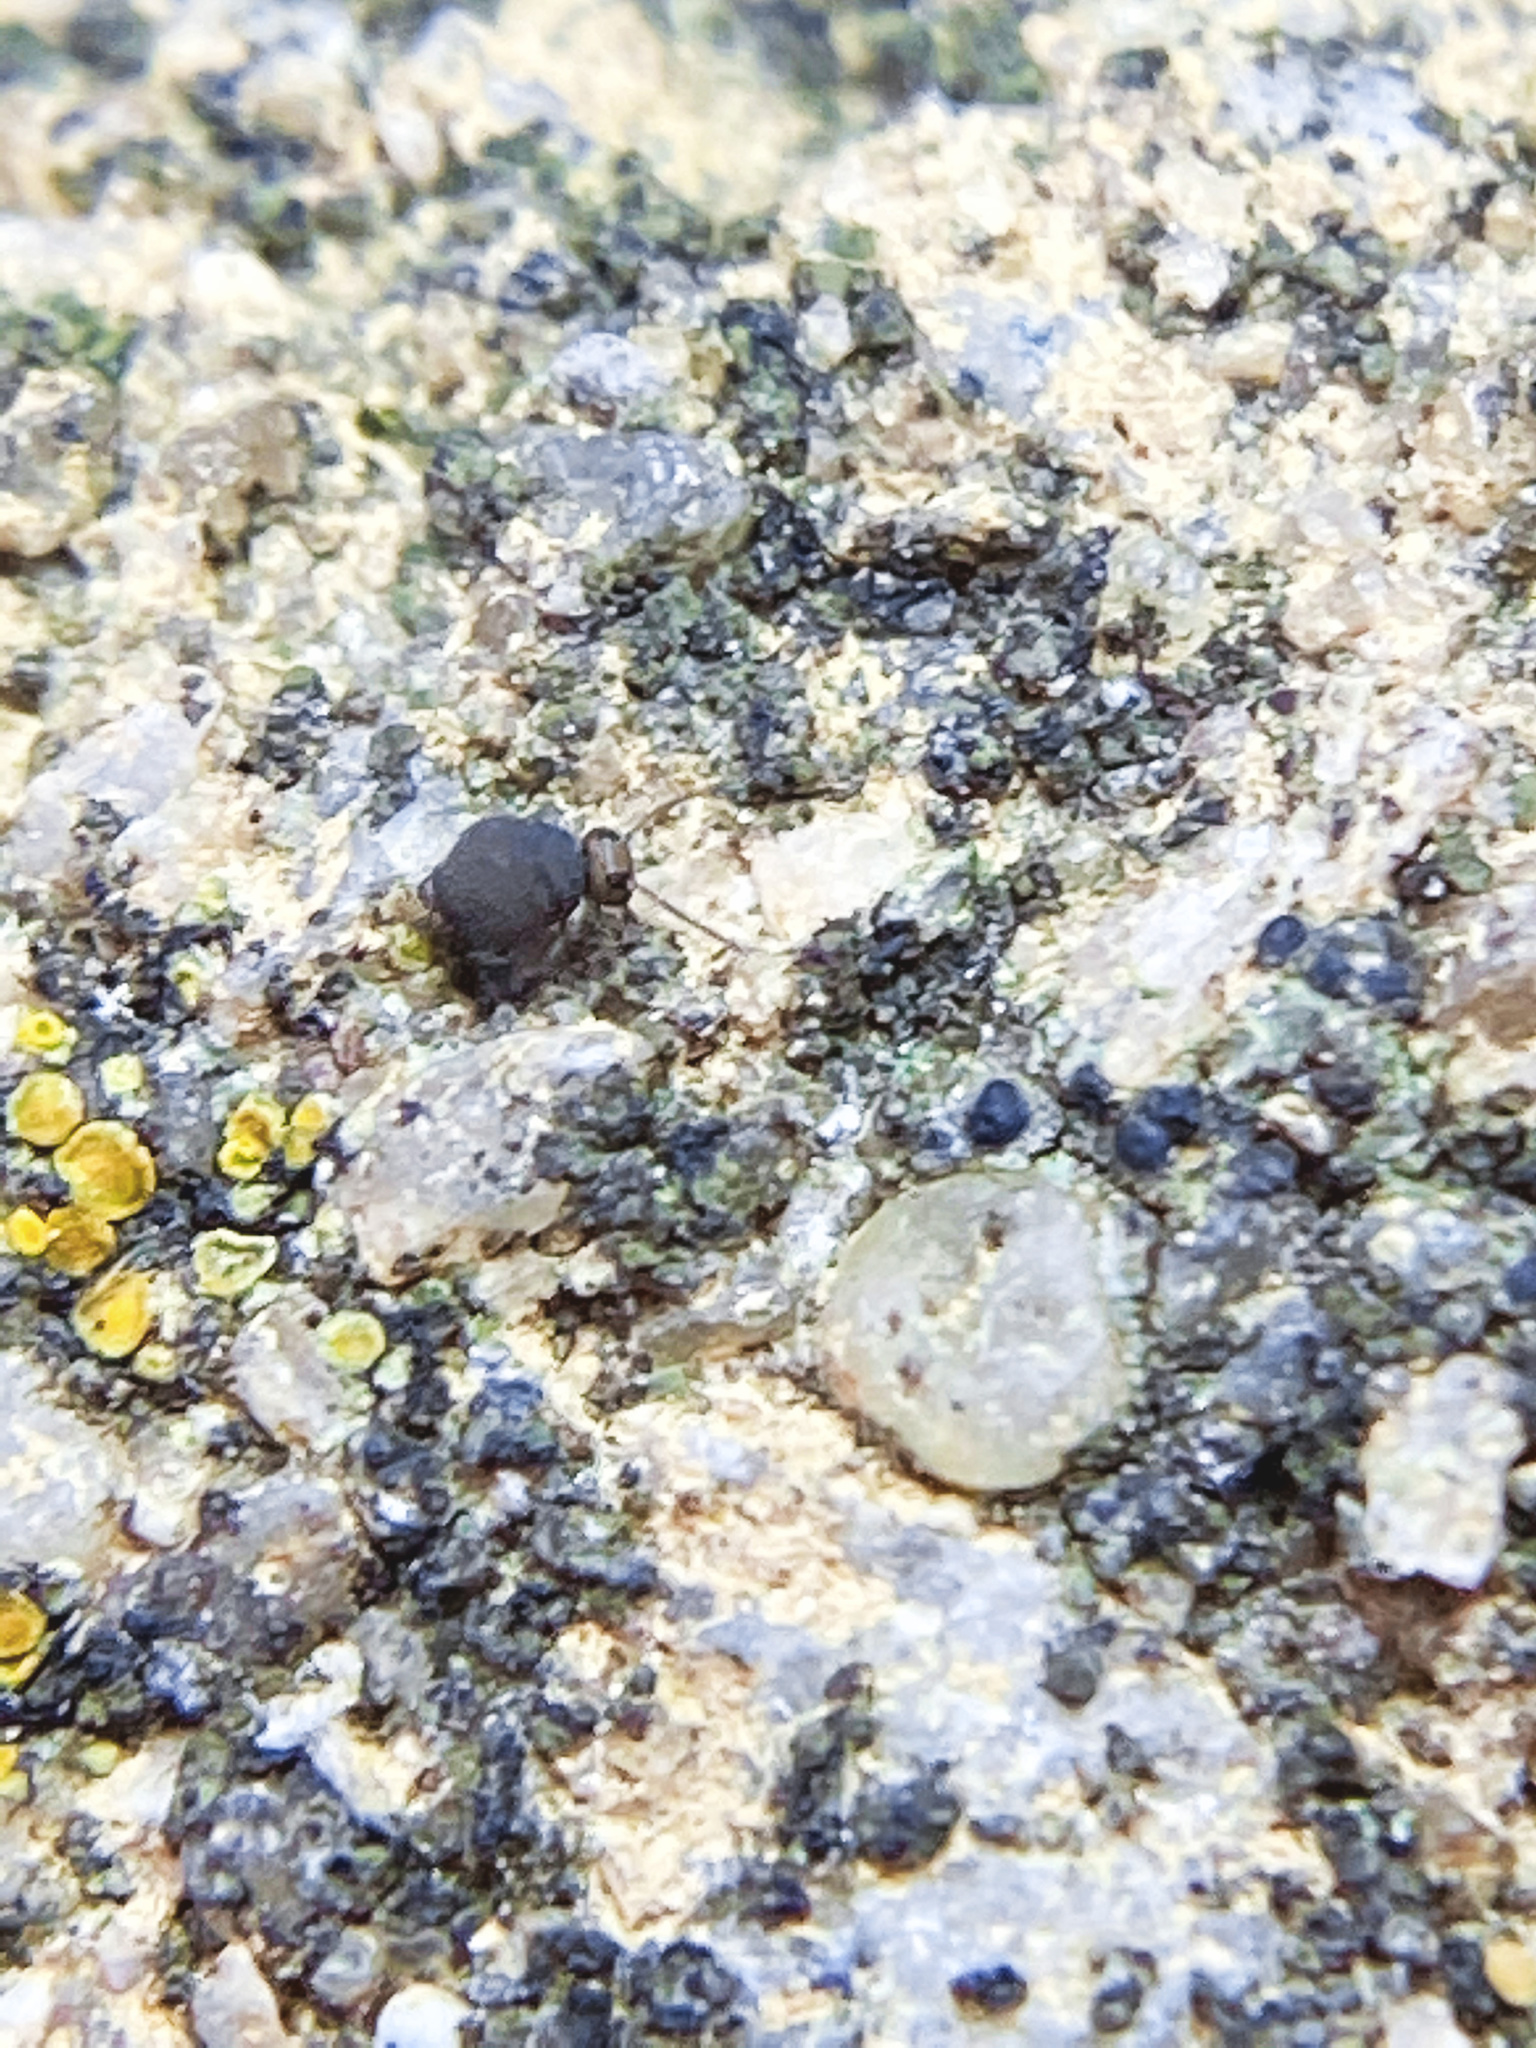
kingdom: Animalia
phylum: Arthropoda
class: Collembola
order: Symphypleona
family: Bourletiellidae
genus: Bourletiella
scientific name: Bourletiella hortensis
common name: Garden springtail
